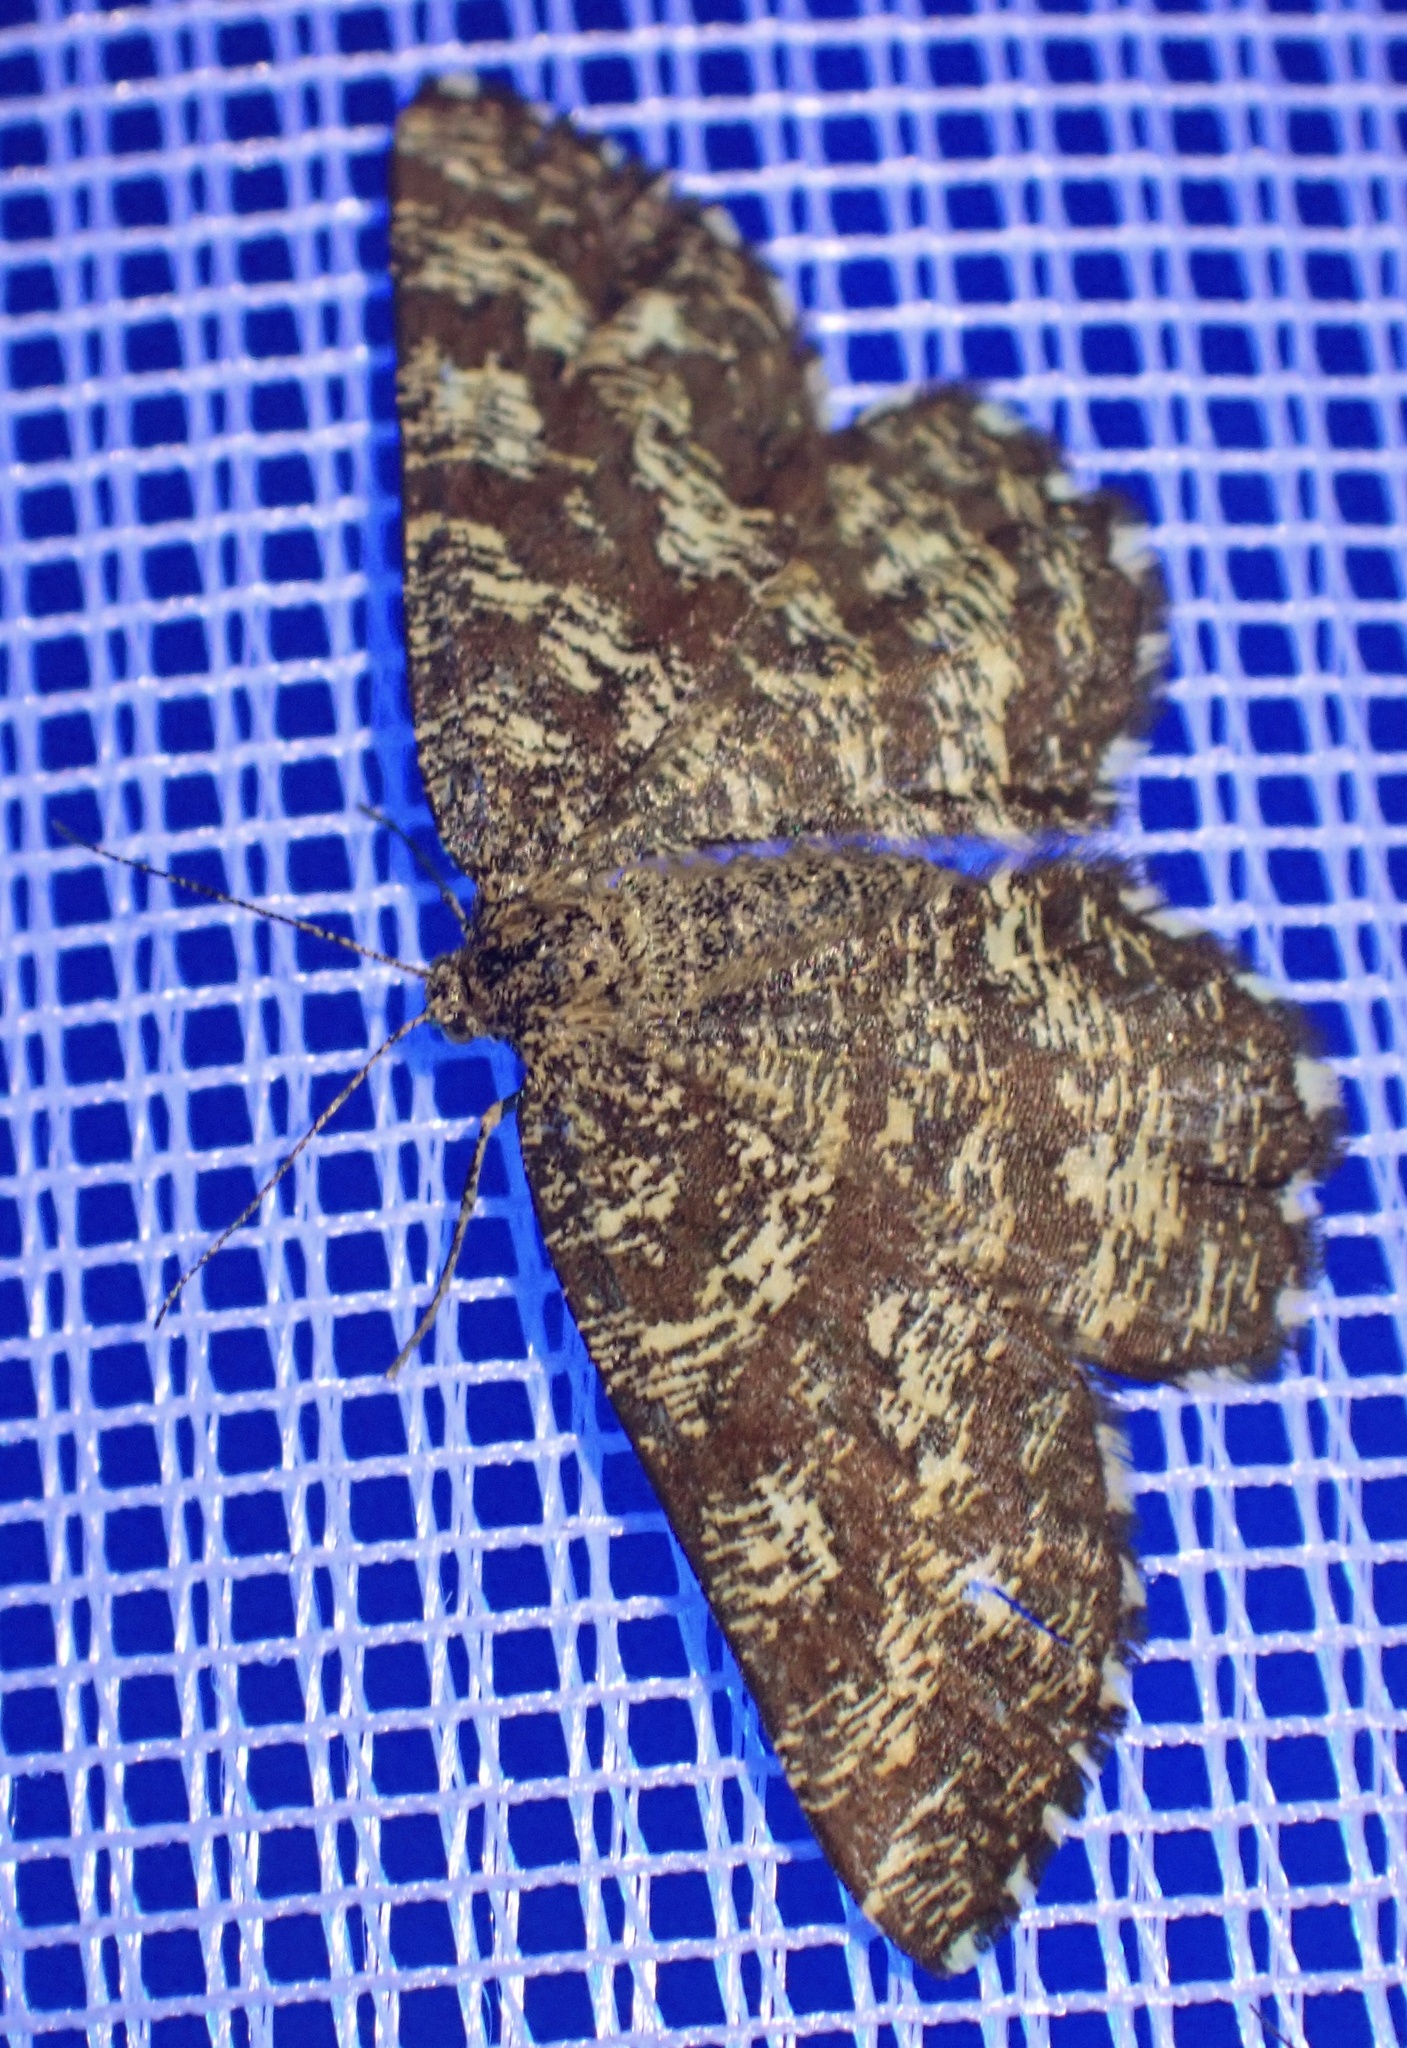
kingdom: Animalia
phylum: Arthropoda
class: Insecta
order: Lepidoptera
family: Geometridae
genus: Ematurga
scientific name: Ematurga atomaria
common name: Common heath
